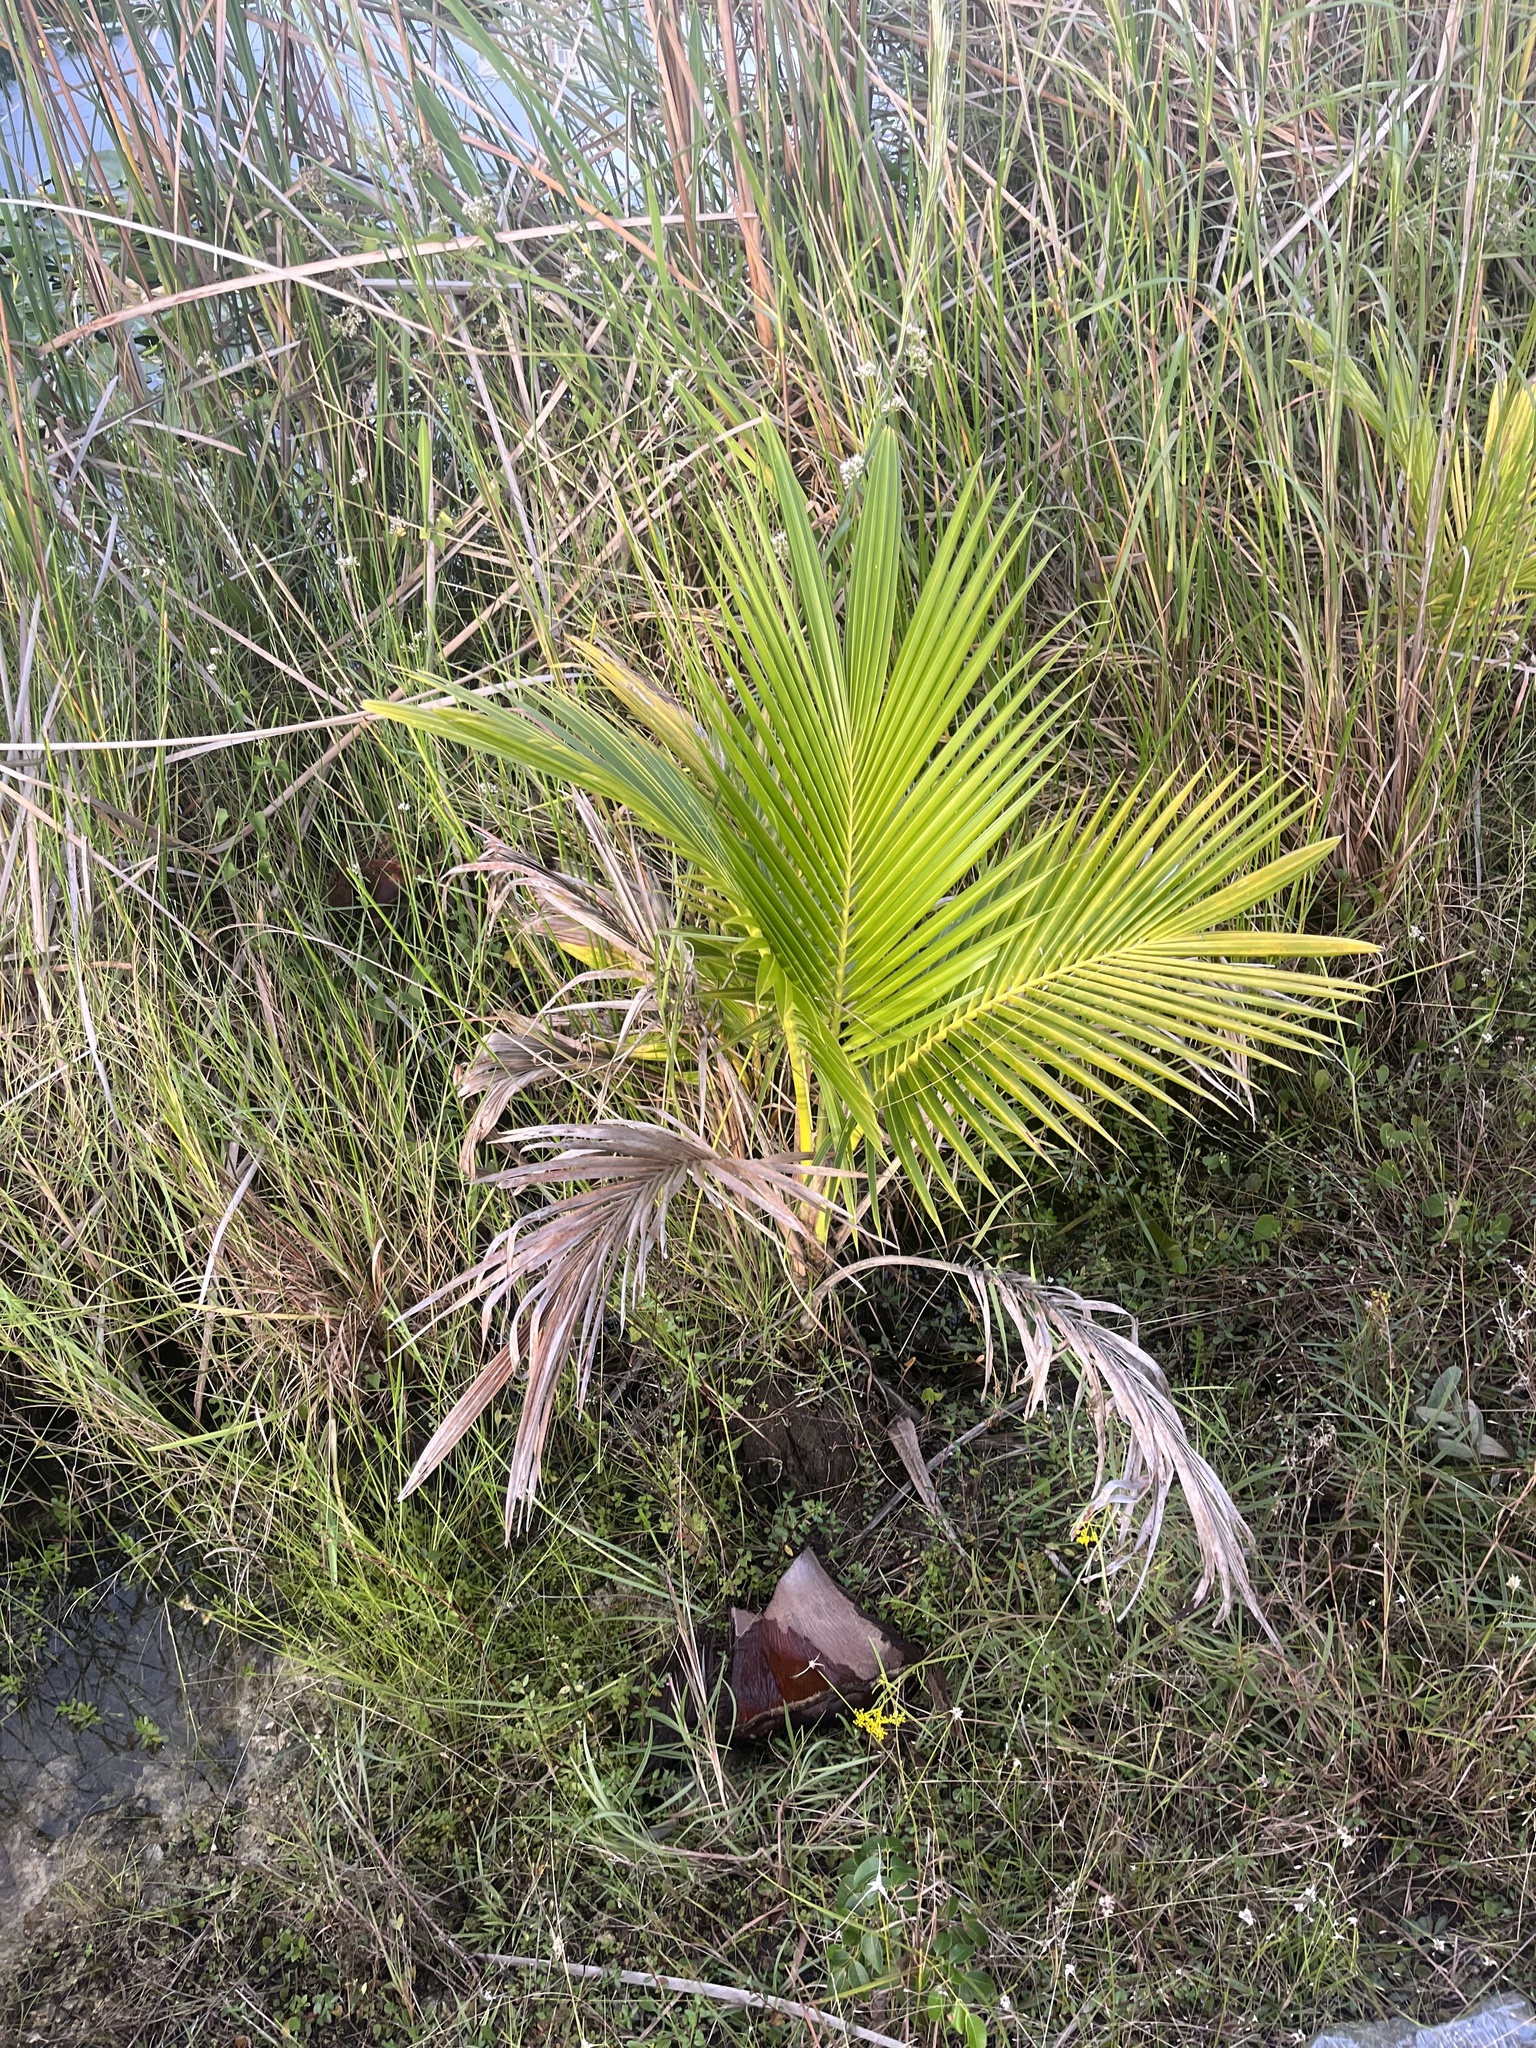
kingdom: Plantae
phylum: Tracheophyta
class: Liliopsida
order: Arecales
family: Arecaceae
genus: Cocos
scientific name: Cocos nucifera
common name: Coconut palm
